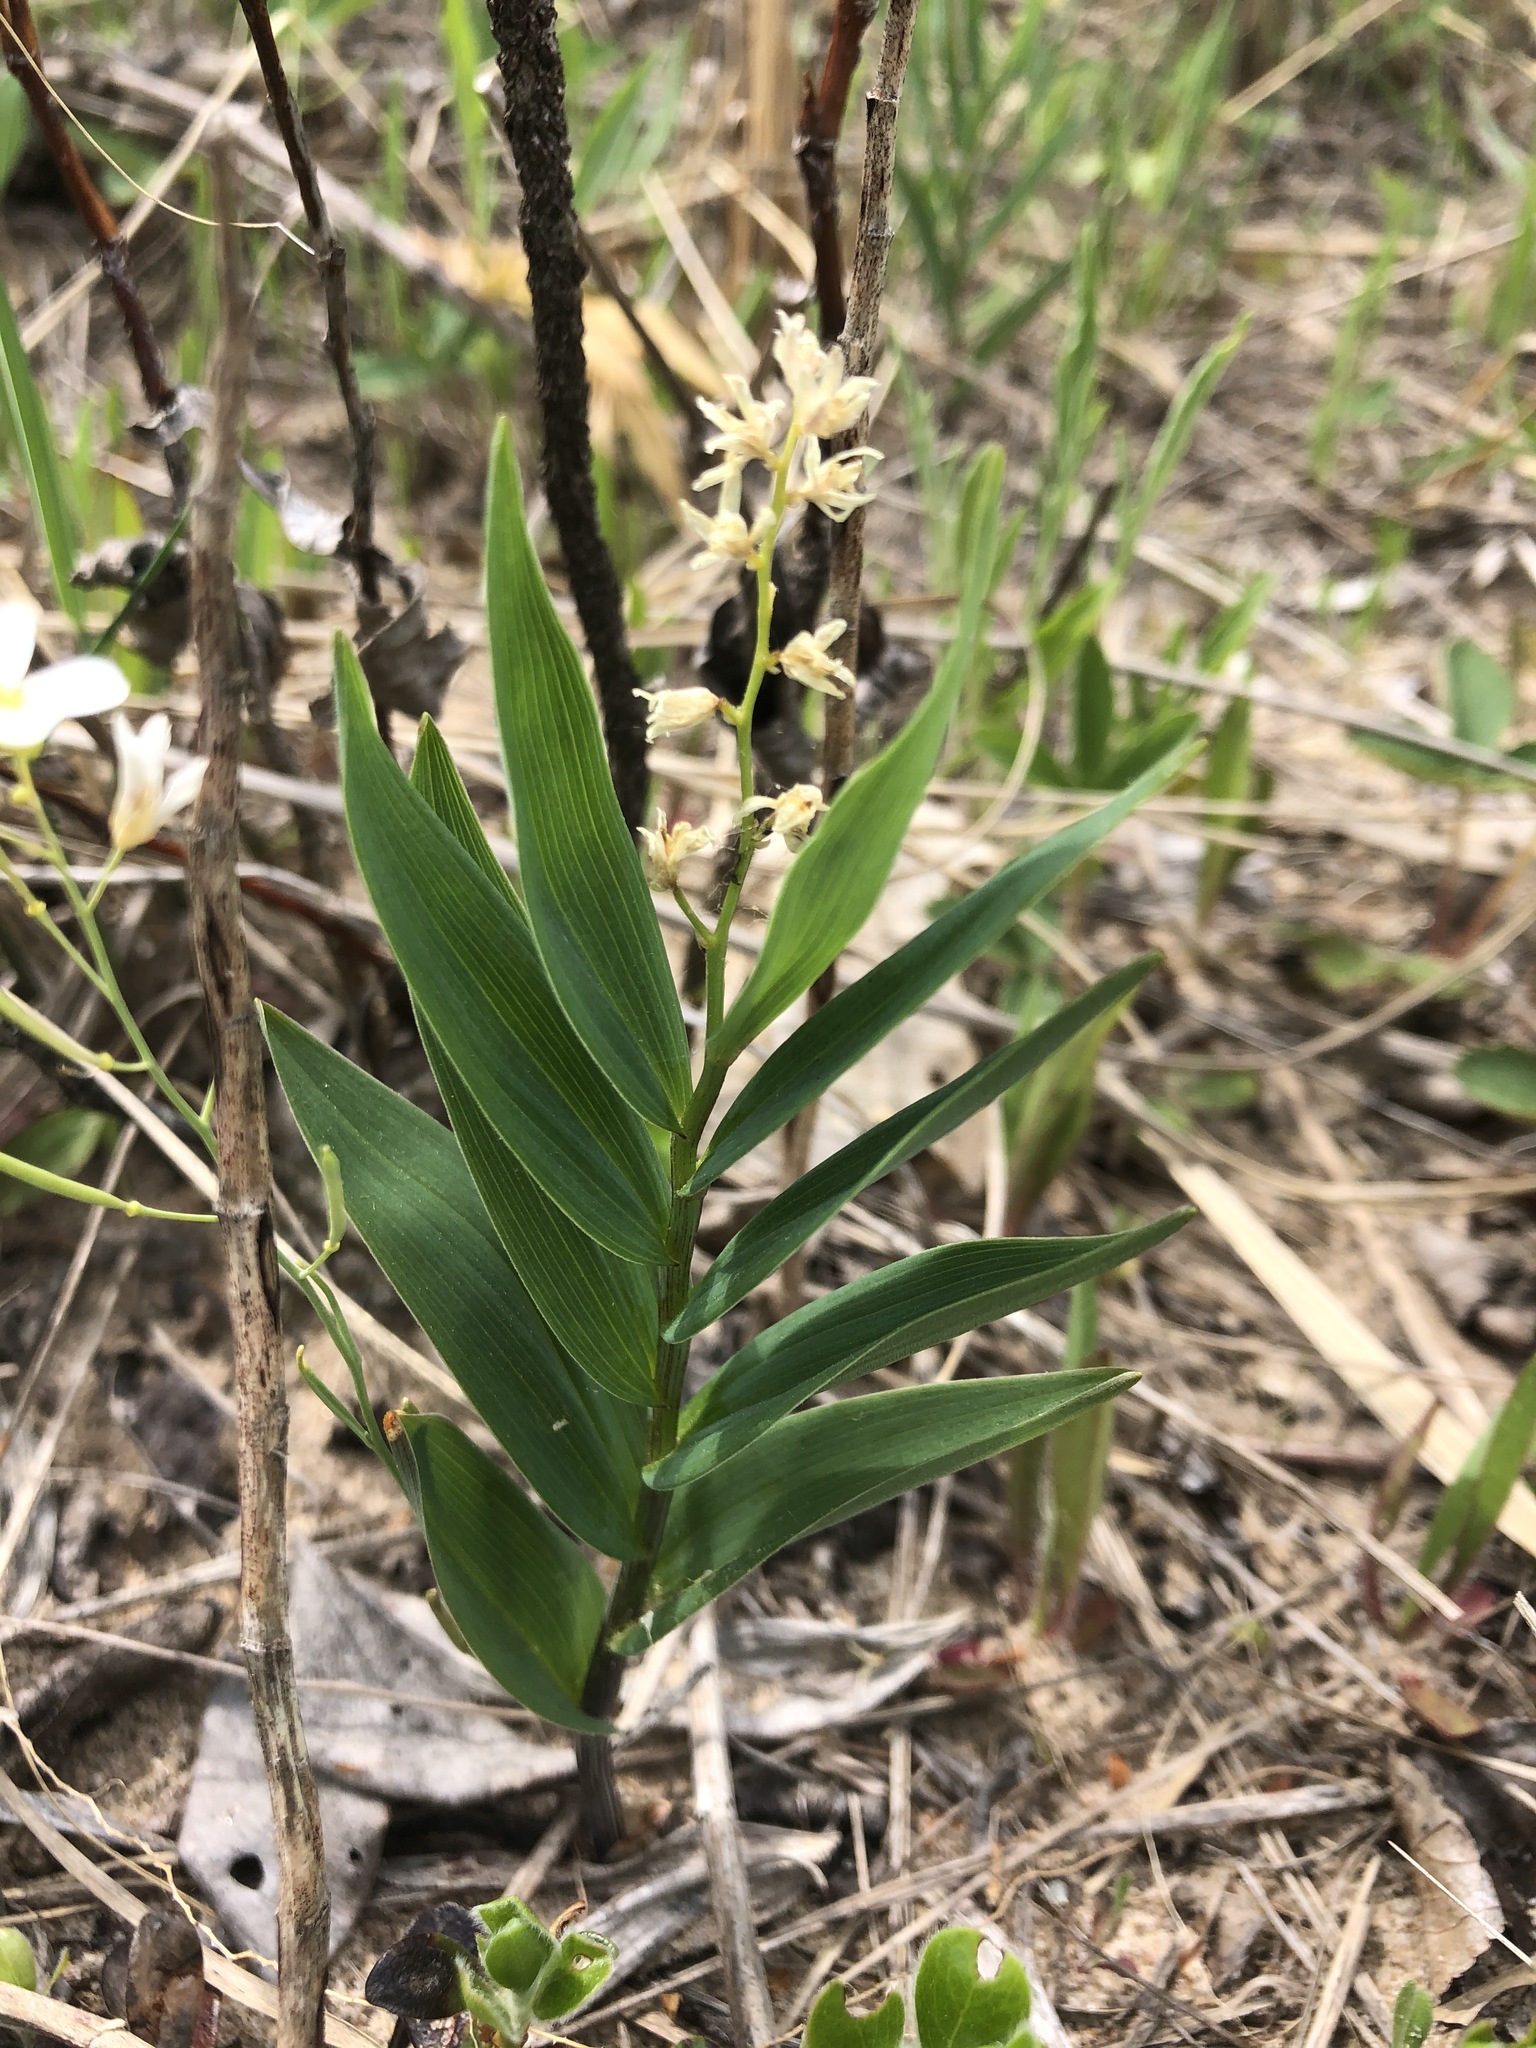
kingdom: Plantae
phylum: Tracheophyta
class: Liliopsida
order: Asparagales
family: Asparagaceae
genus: Maianthemum
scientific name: Maianthemum stellatum
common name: Little false solomon's seal
